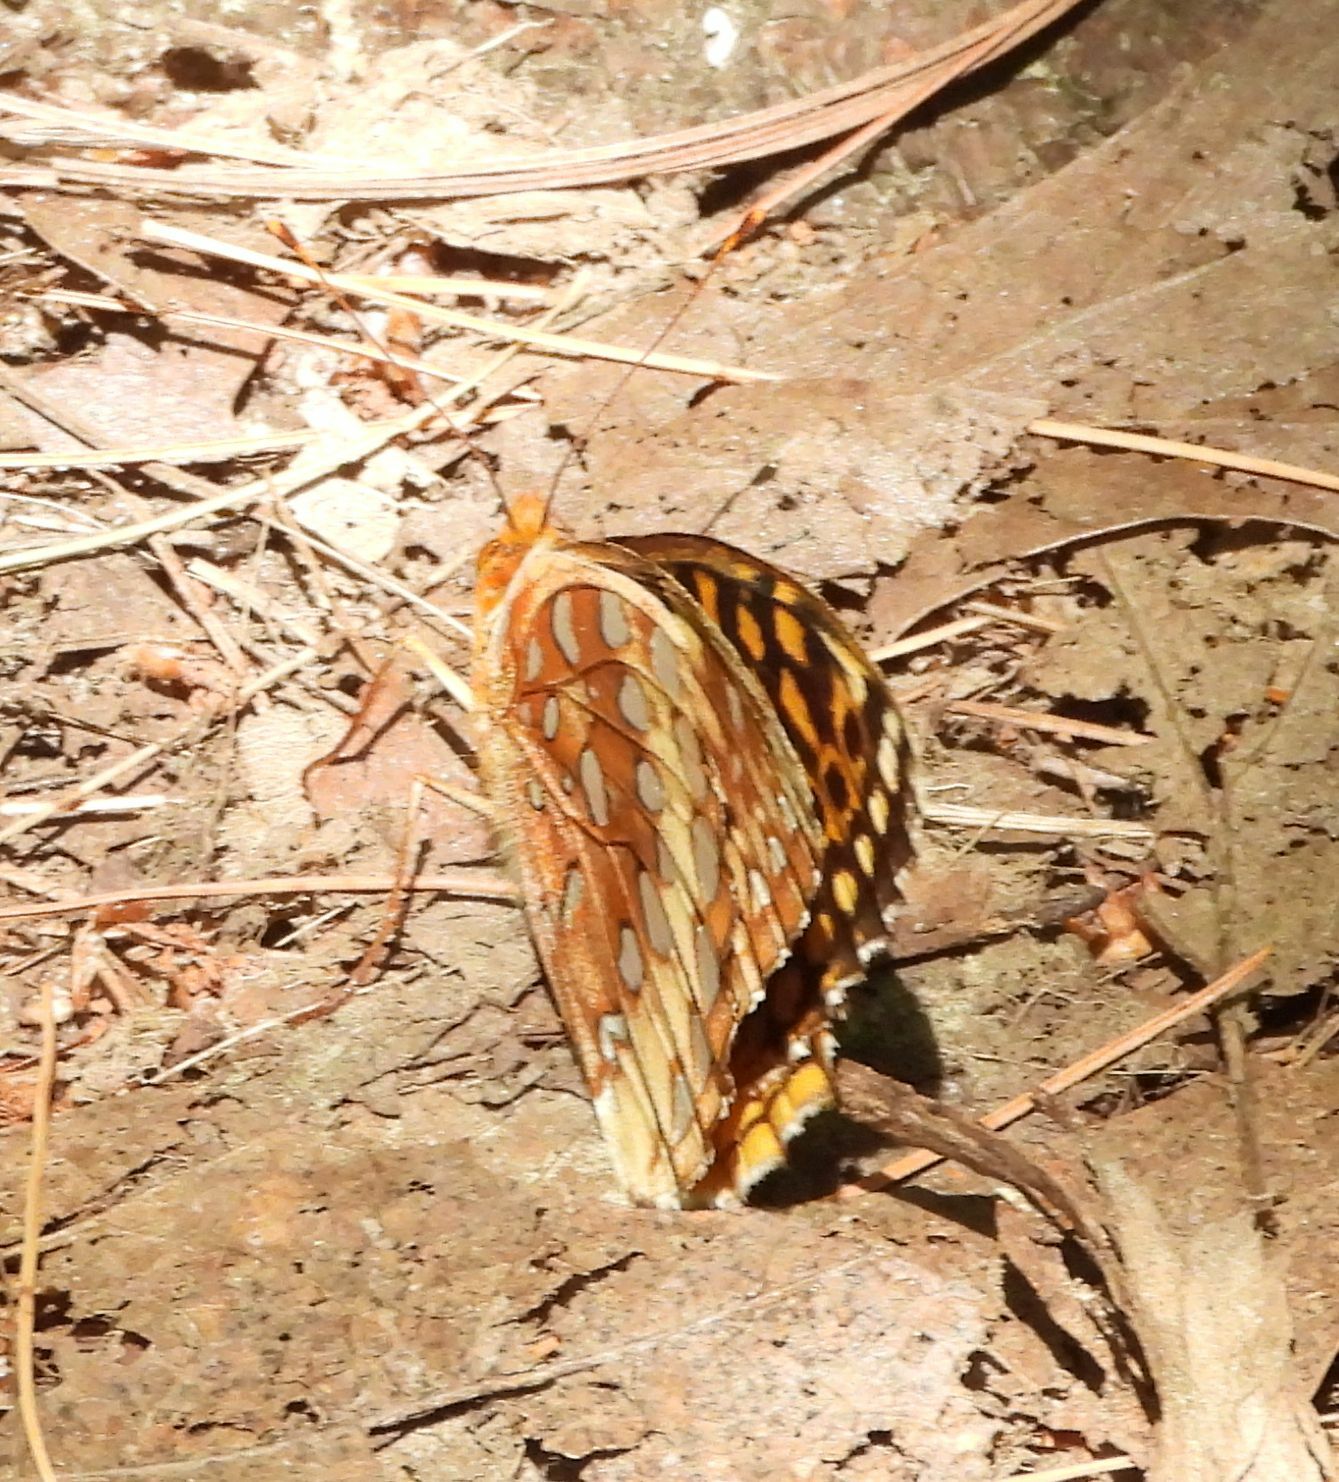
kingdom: Animalia
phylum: Arthropoda
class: Insecta
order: Lepidoptera
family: Nymphalidae
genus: Speyeria
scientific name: Speyeria cybele
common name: Great spangled fritillary
